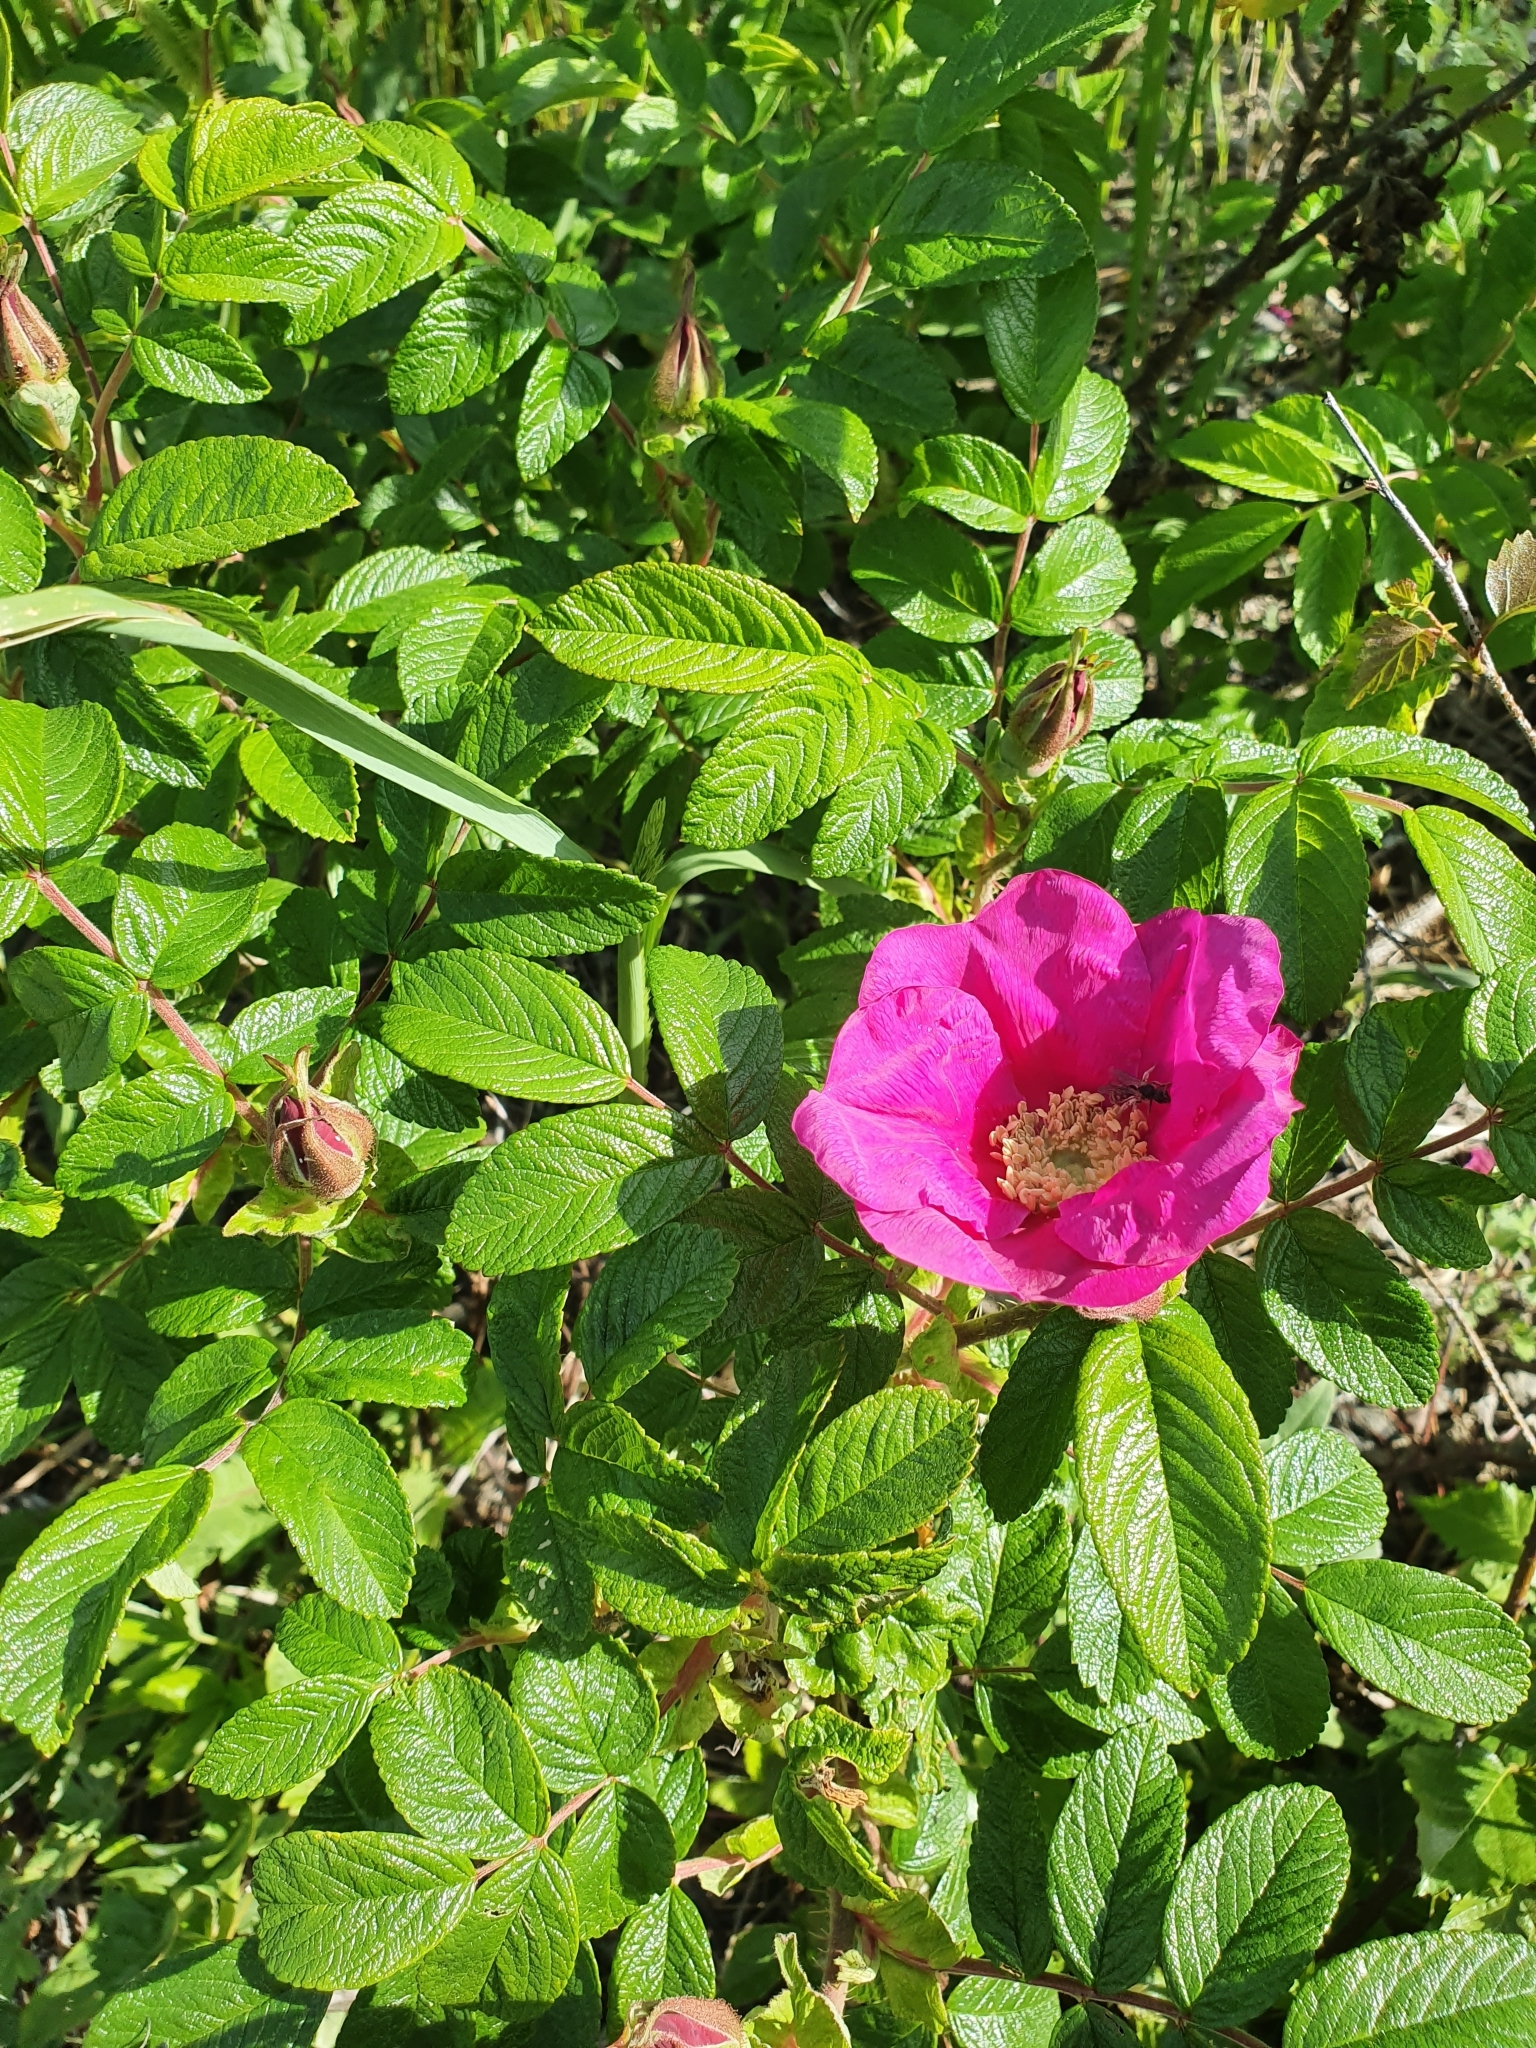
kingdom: Plantae
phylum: Tracheophyta
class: Magnoliopsida
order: Rosales
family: Rosaceae
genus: Rosa
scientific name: Rosa rugosa
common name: Japanese rose
